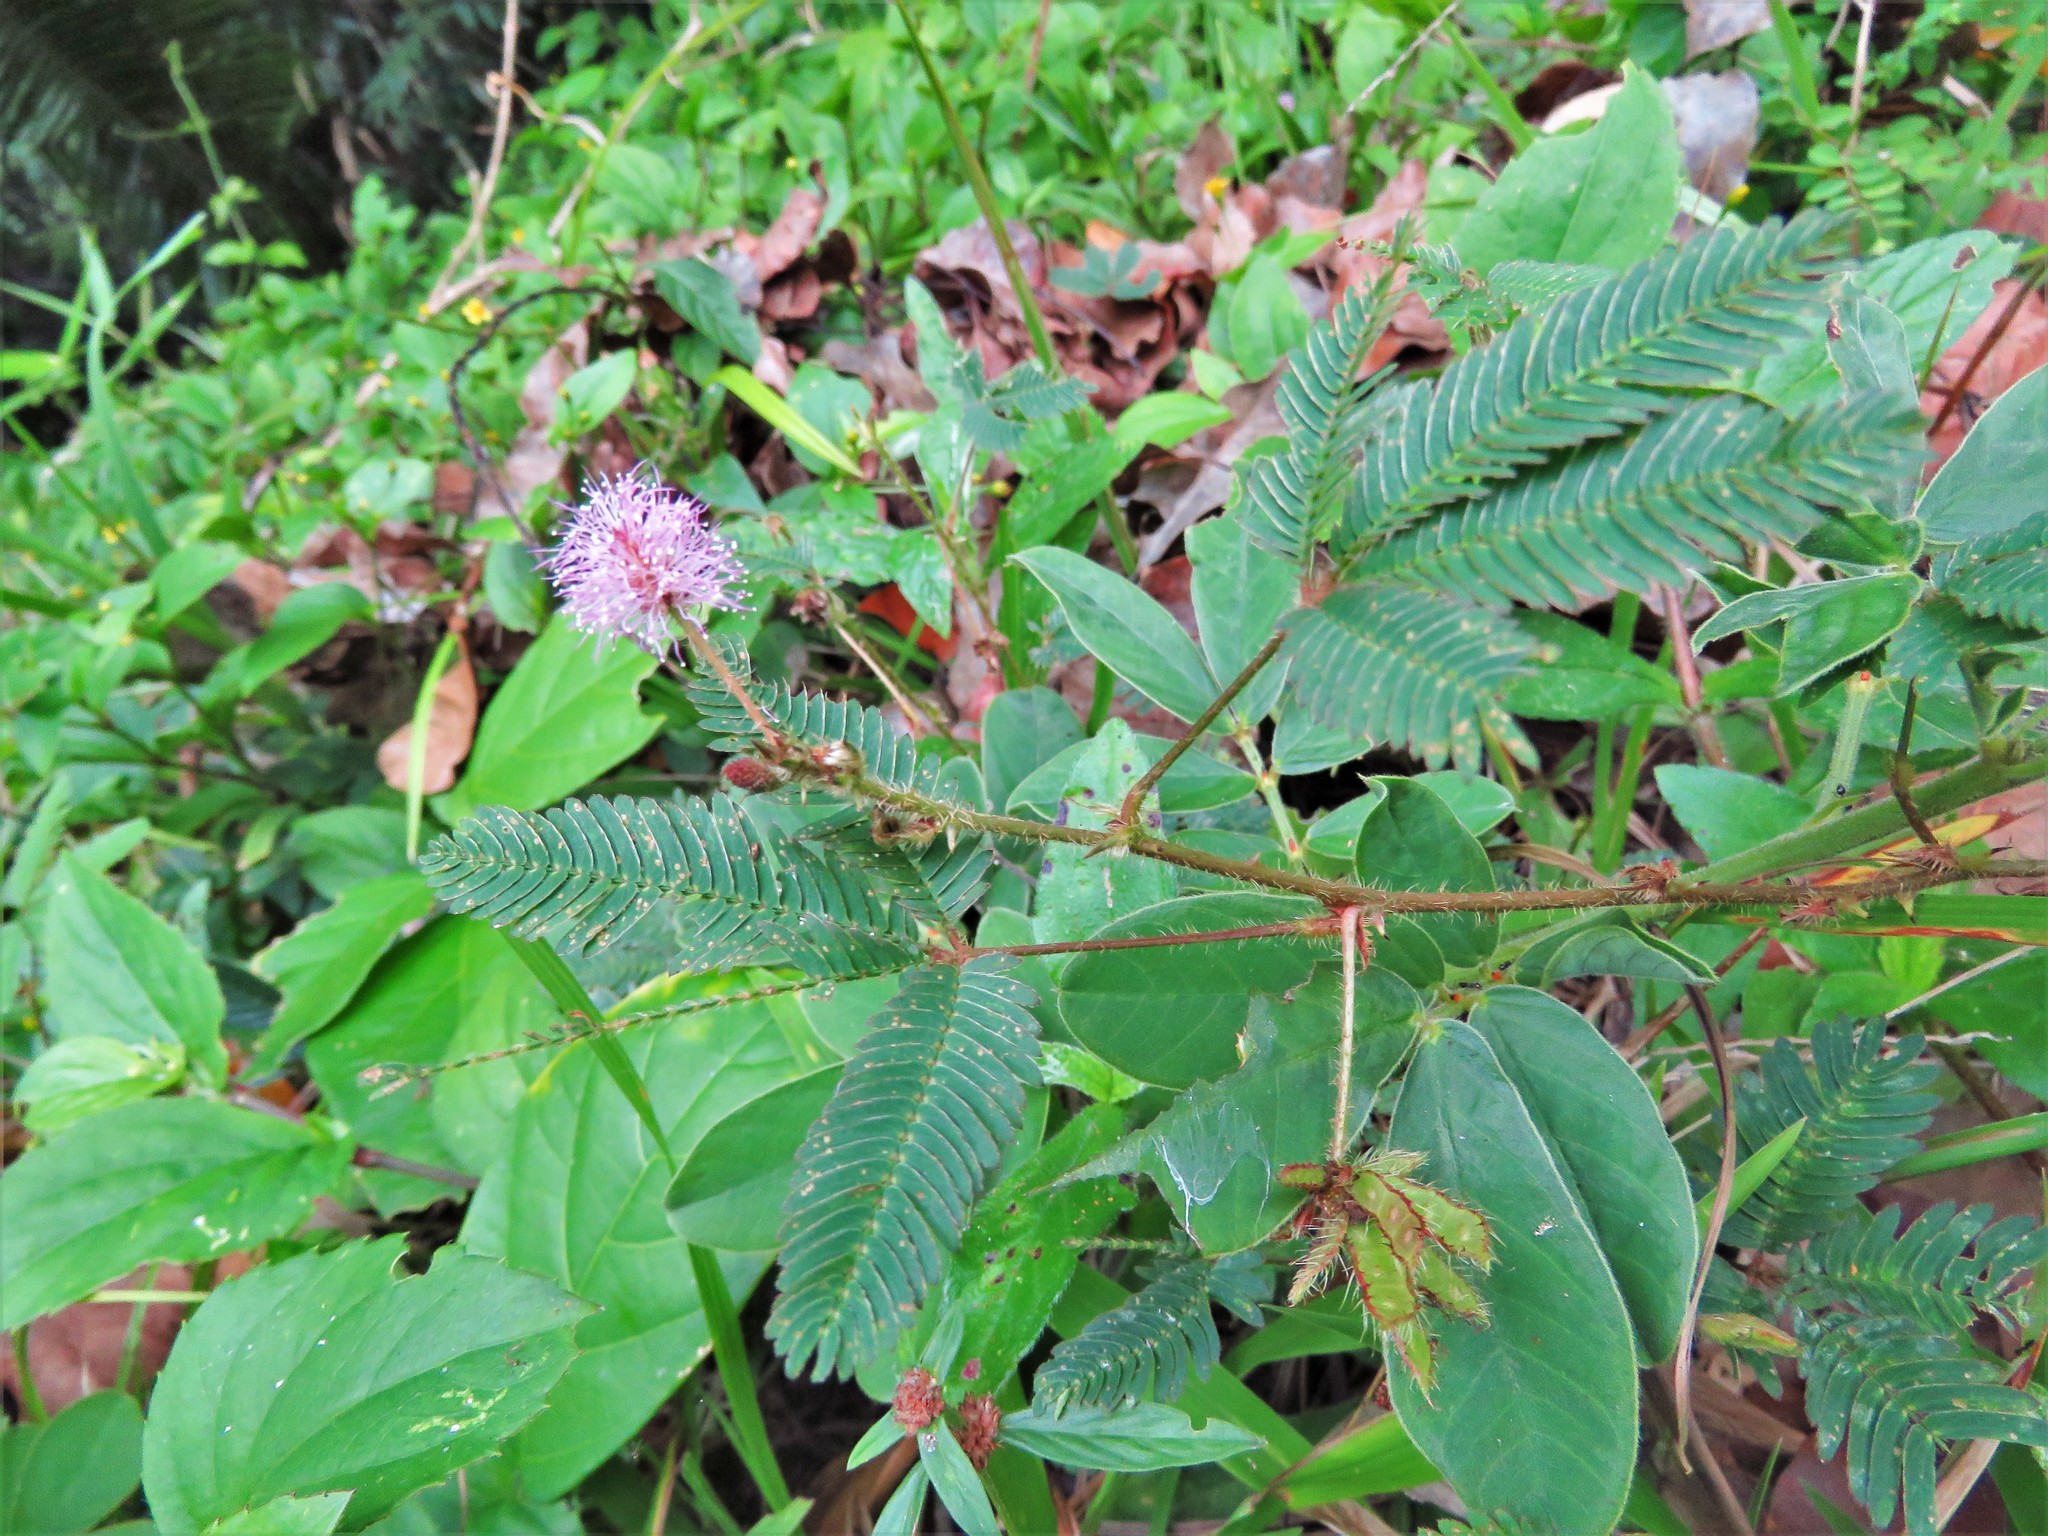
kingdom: Plantae
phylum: Tracheophyta
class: Magnoliopsida
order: Fabales
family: Fabaceae
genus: Mimosa
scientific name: Mimosa pudica
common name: Sensitive plant
